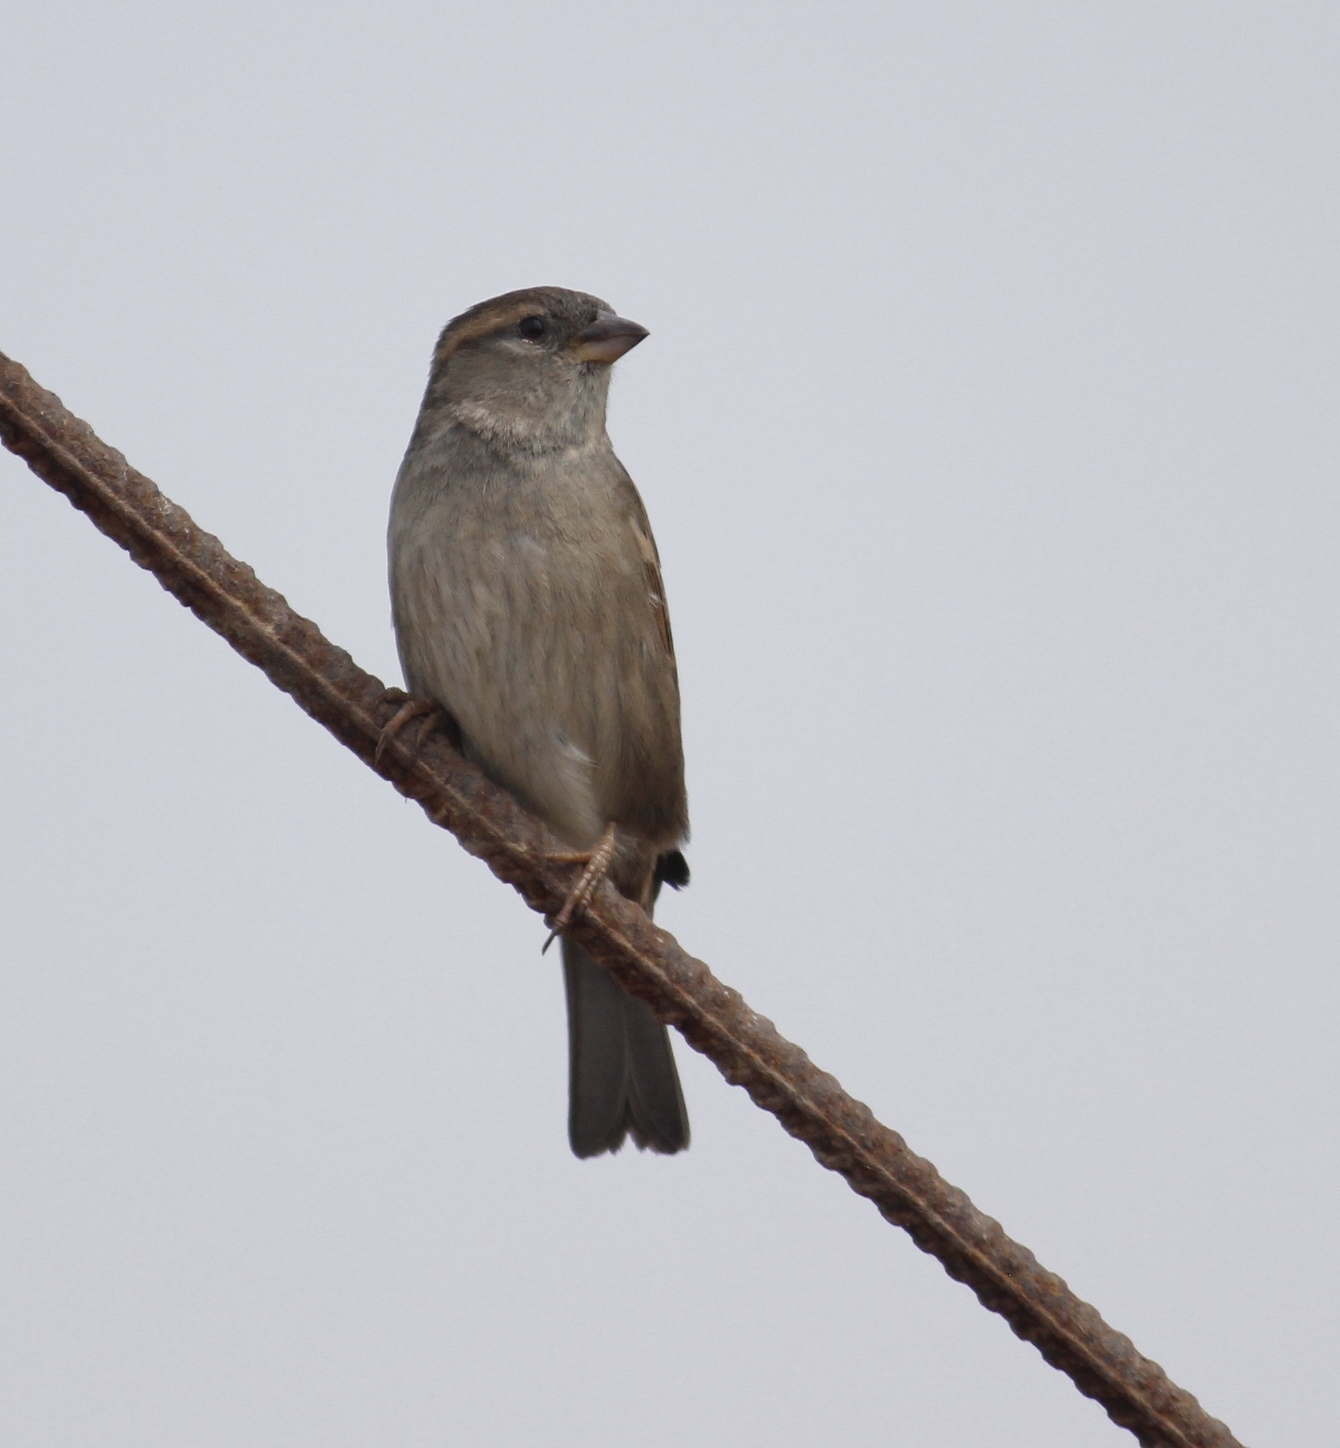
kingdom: Animalia
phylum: Chordata
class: Aves
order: Passeriformes
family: Passeridae
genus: Passer
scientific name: Passer domesticus
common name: House sparrow
